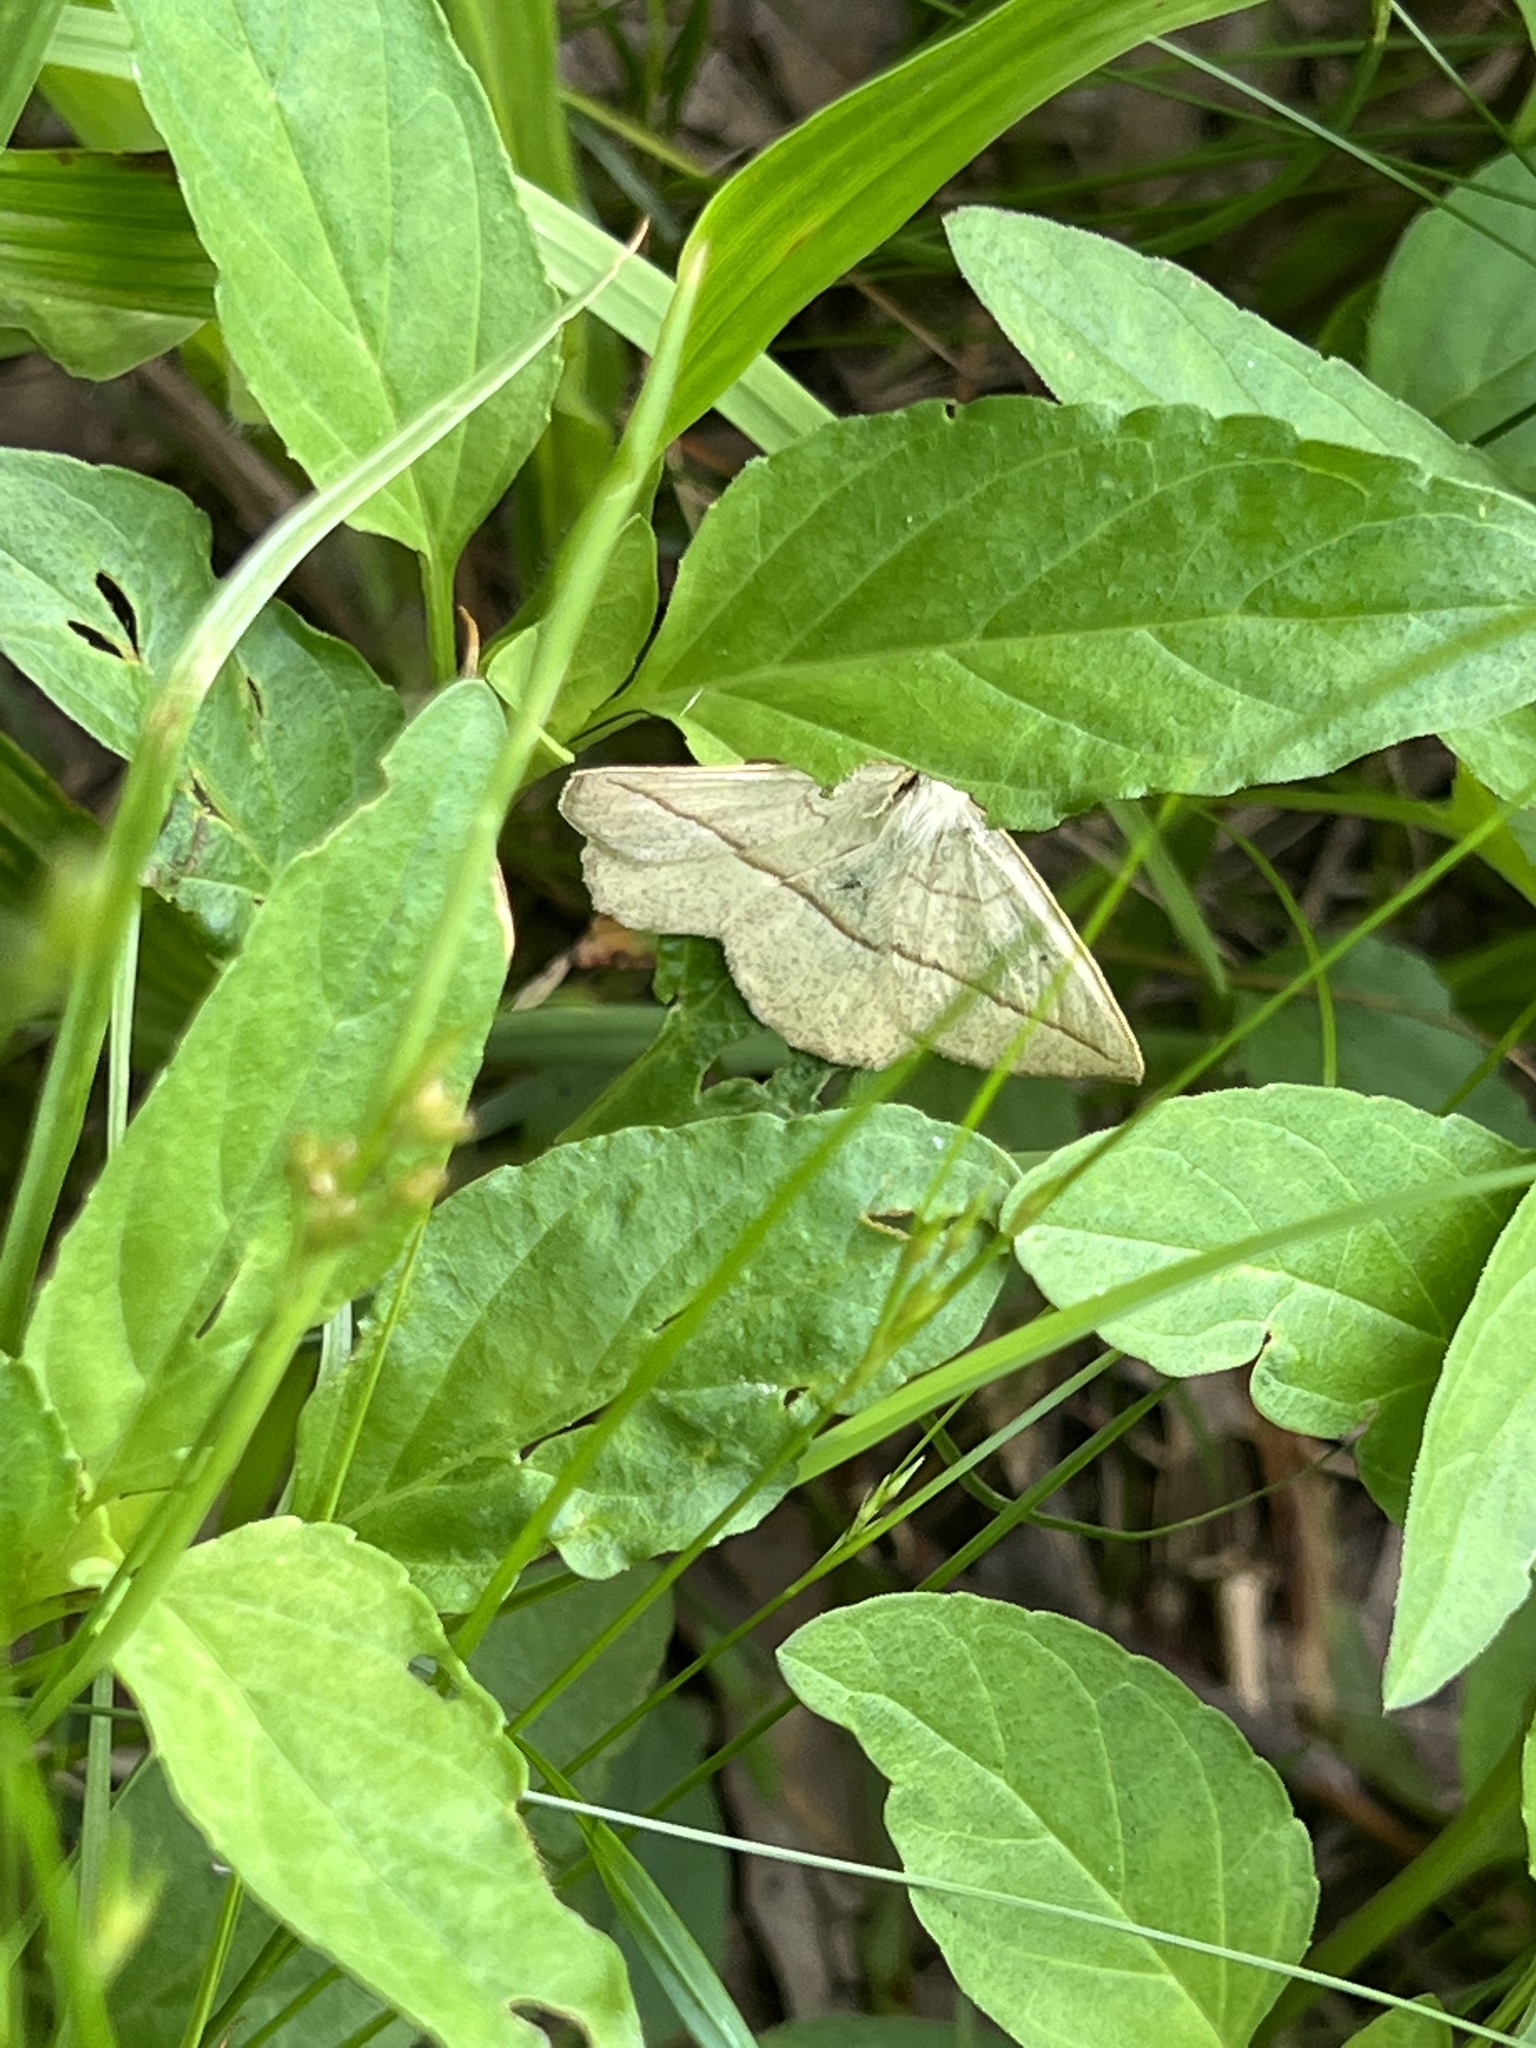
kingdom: Animalia
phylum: Arthropoda
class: Insecta
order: Lepidoptera
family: Geometridae
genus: Eusarca
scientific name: Eusarca confusaria
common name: Confused eusarca
